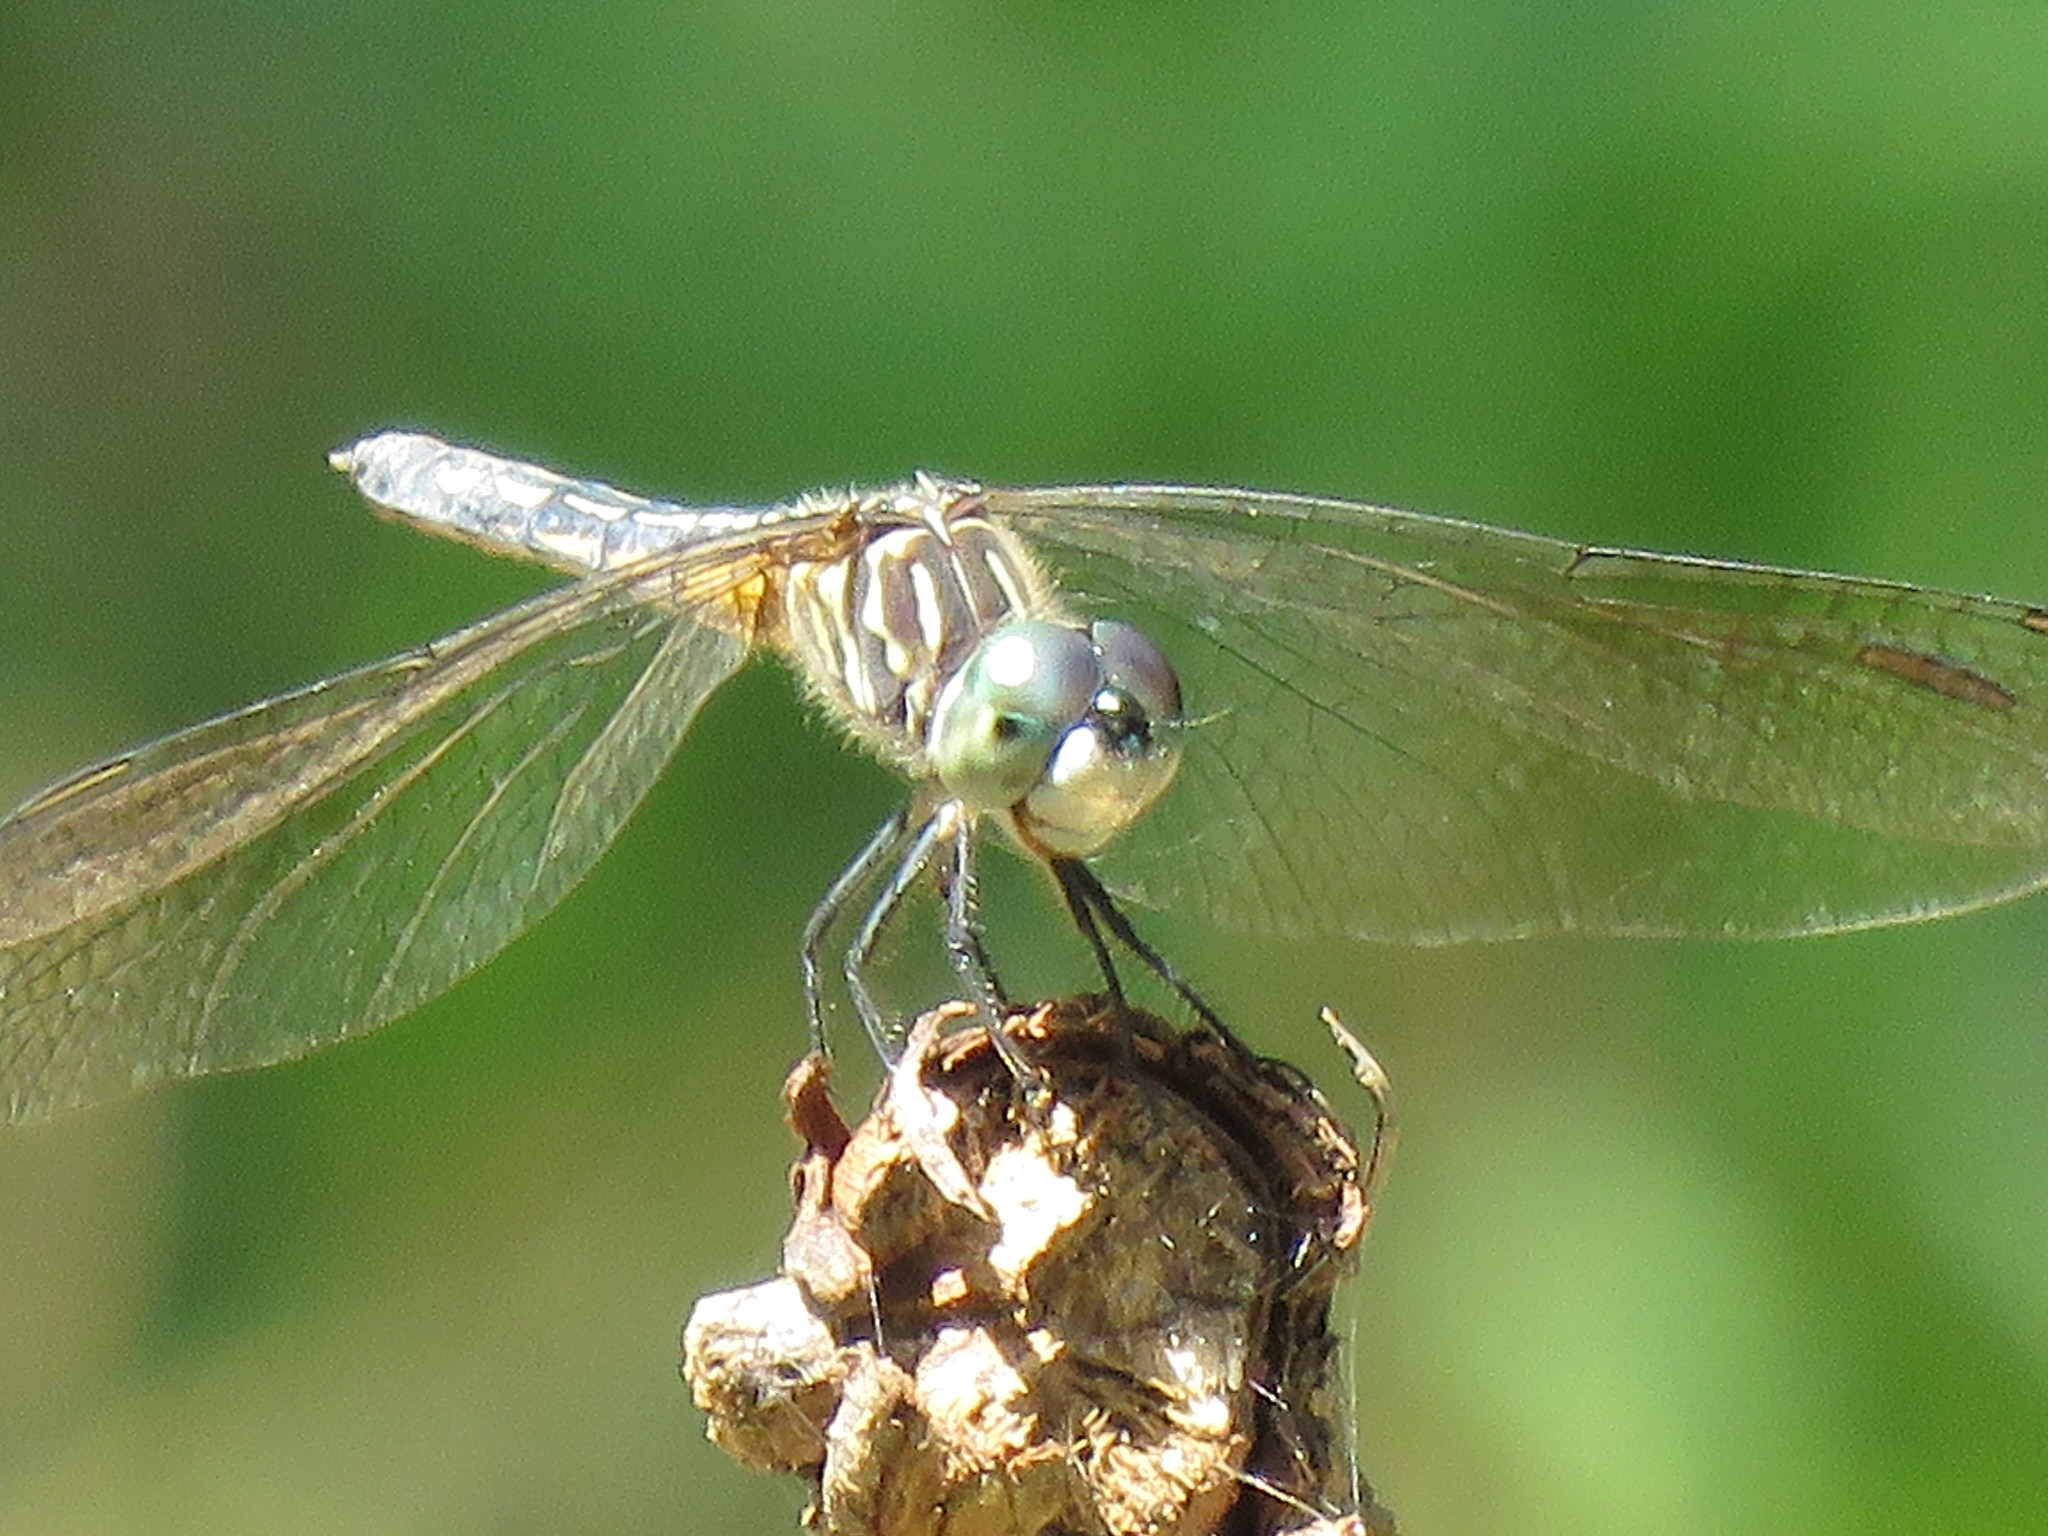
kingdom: Animalia
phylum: Arthropoda
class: Insecta
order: Odonata
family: Libellulidae
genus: Pachydiplax
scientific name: Pachydiplax longipennis
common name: Blue dasher
